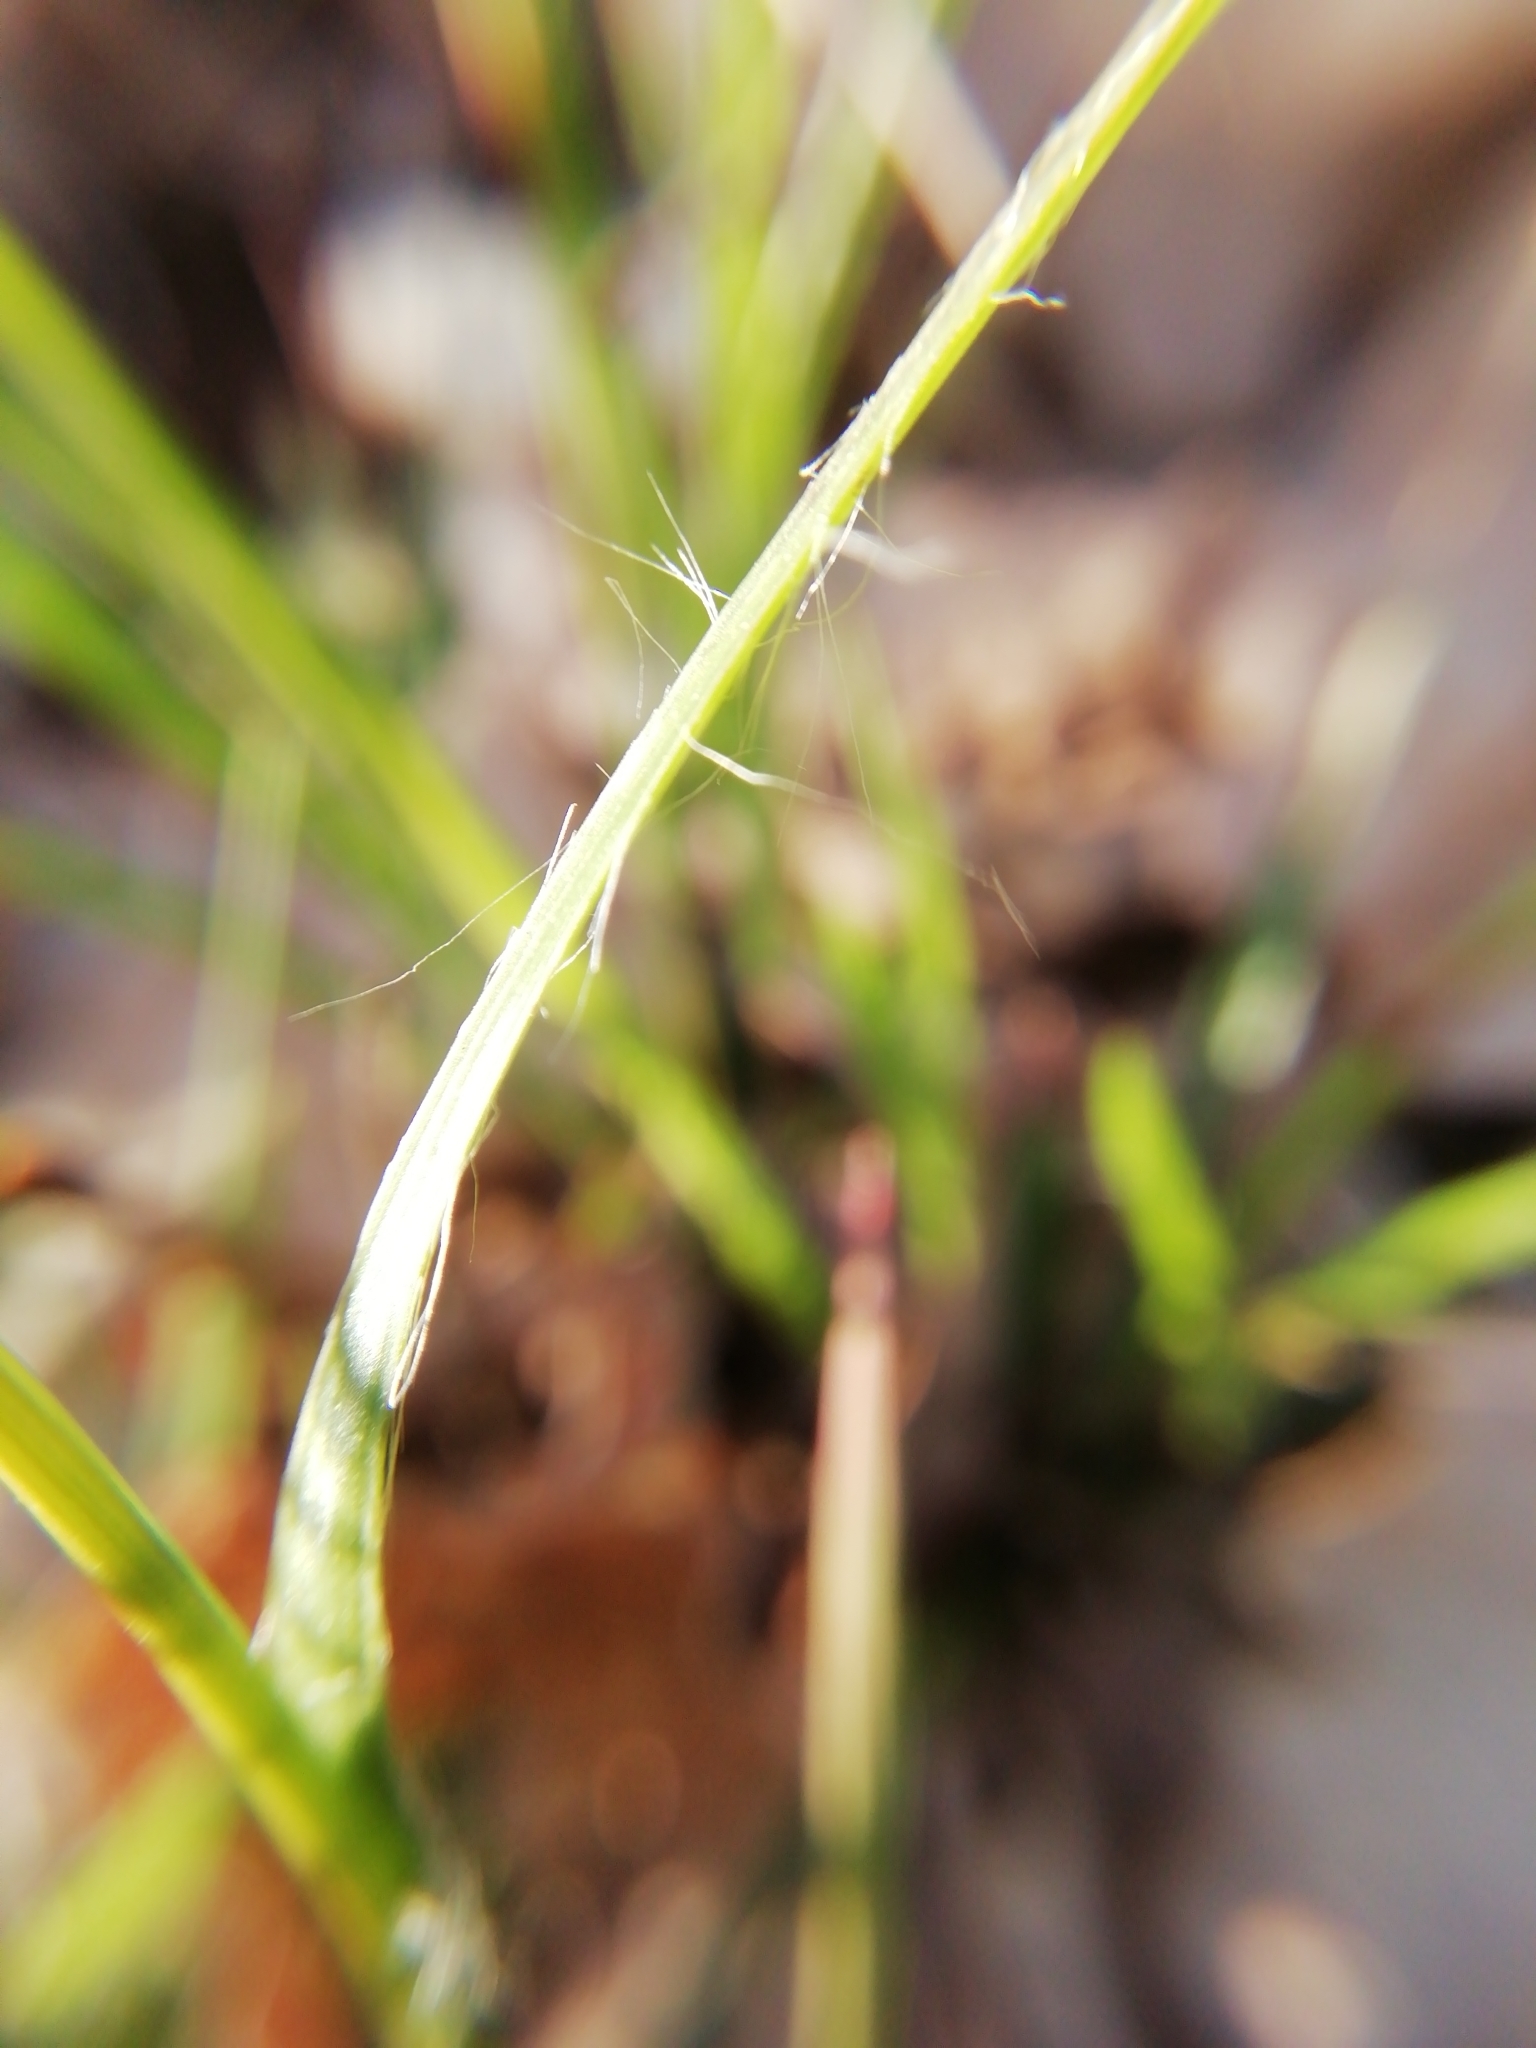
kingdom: Plantae
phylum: Tracheophyta
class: Liliopsida
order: Poales
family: Juncaceae
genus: Luzula
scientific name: Luzula forsteri
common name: Southern wood-rush
